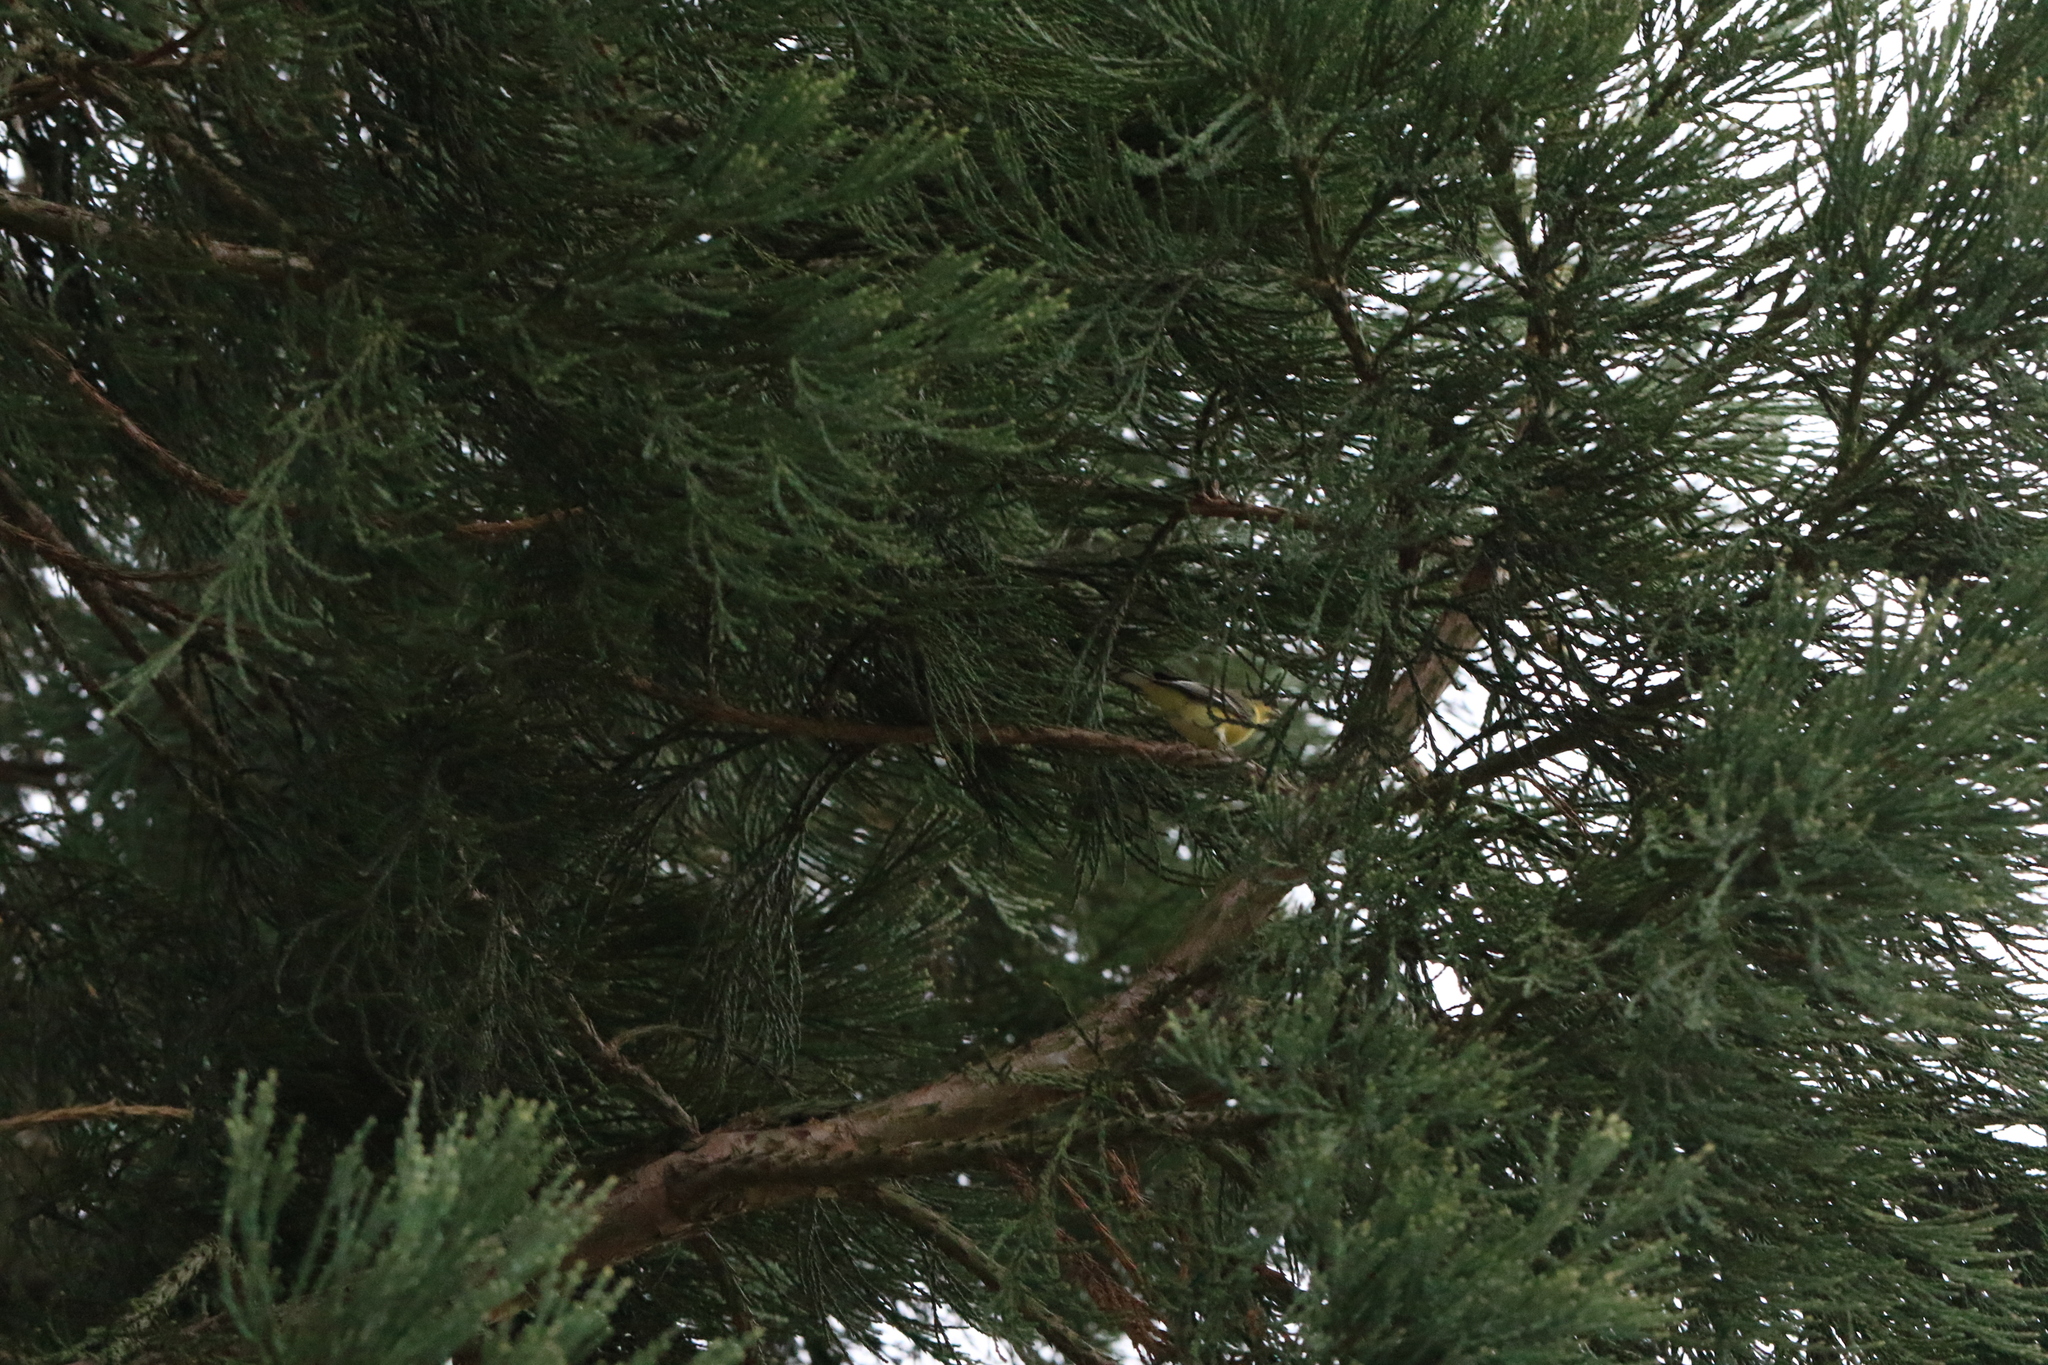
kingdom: Animalia
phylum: Chordata
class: Aves
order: Passeriformes
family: Fringillidae
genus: Spinus
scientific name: Spinus psaltria
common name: Lesser goldfinch
